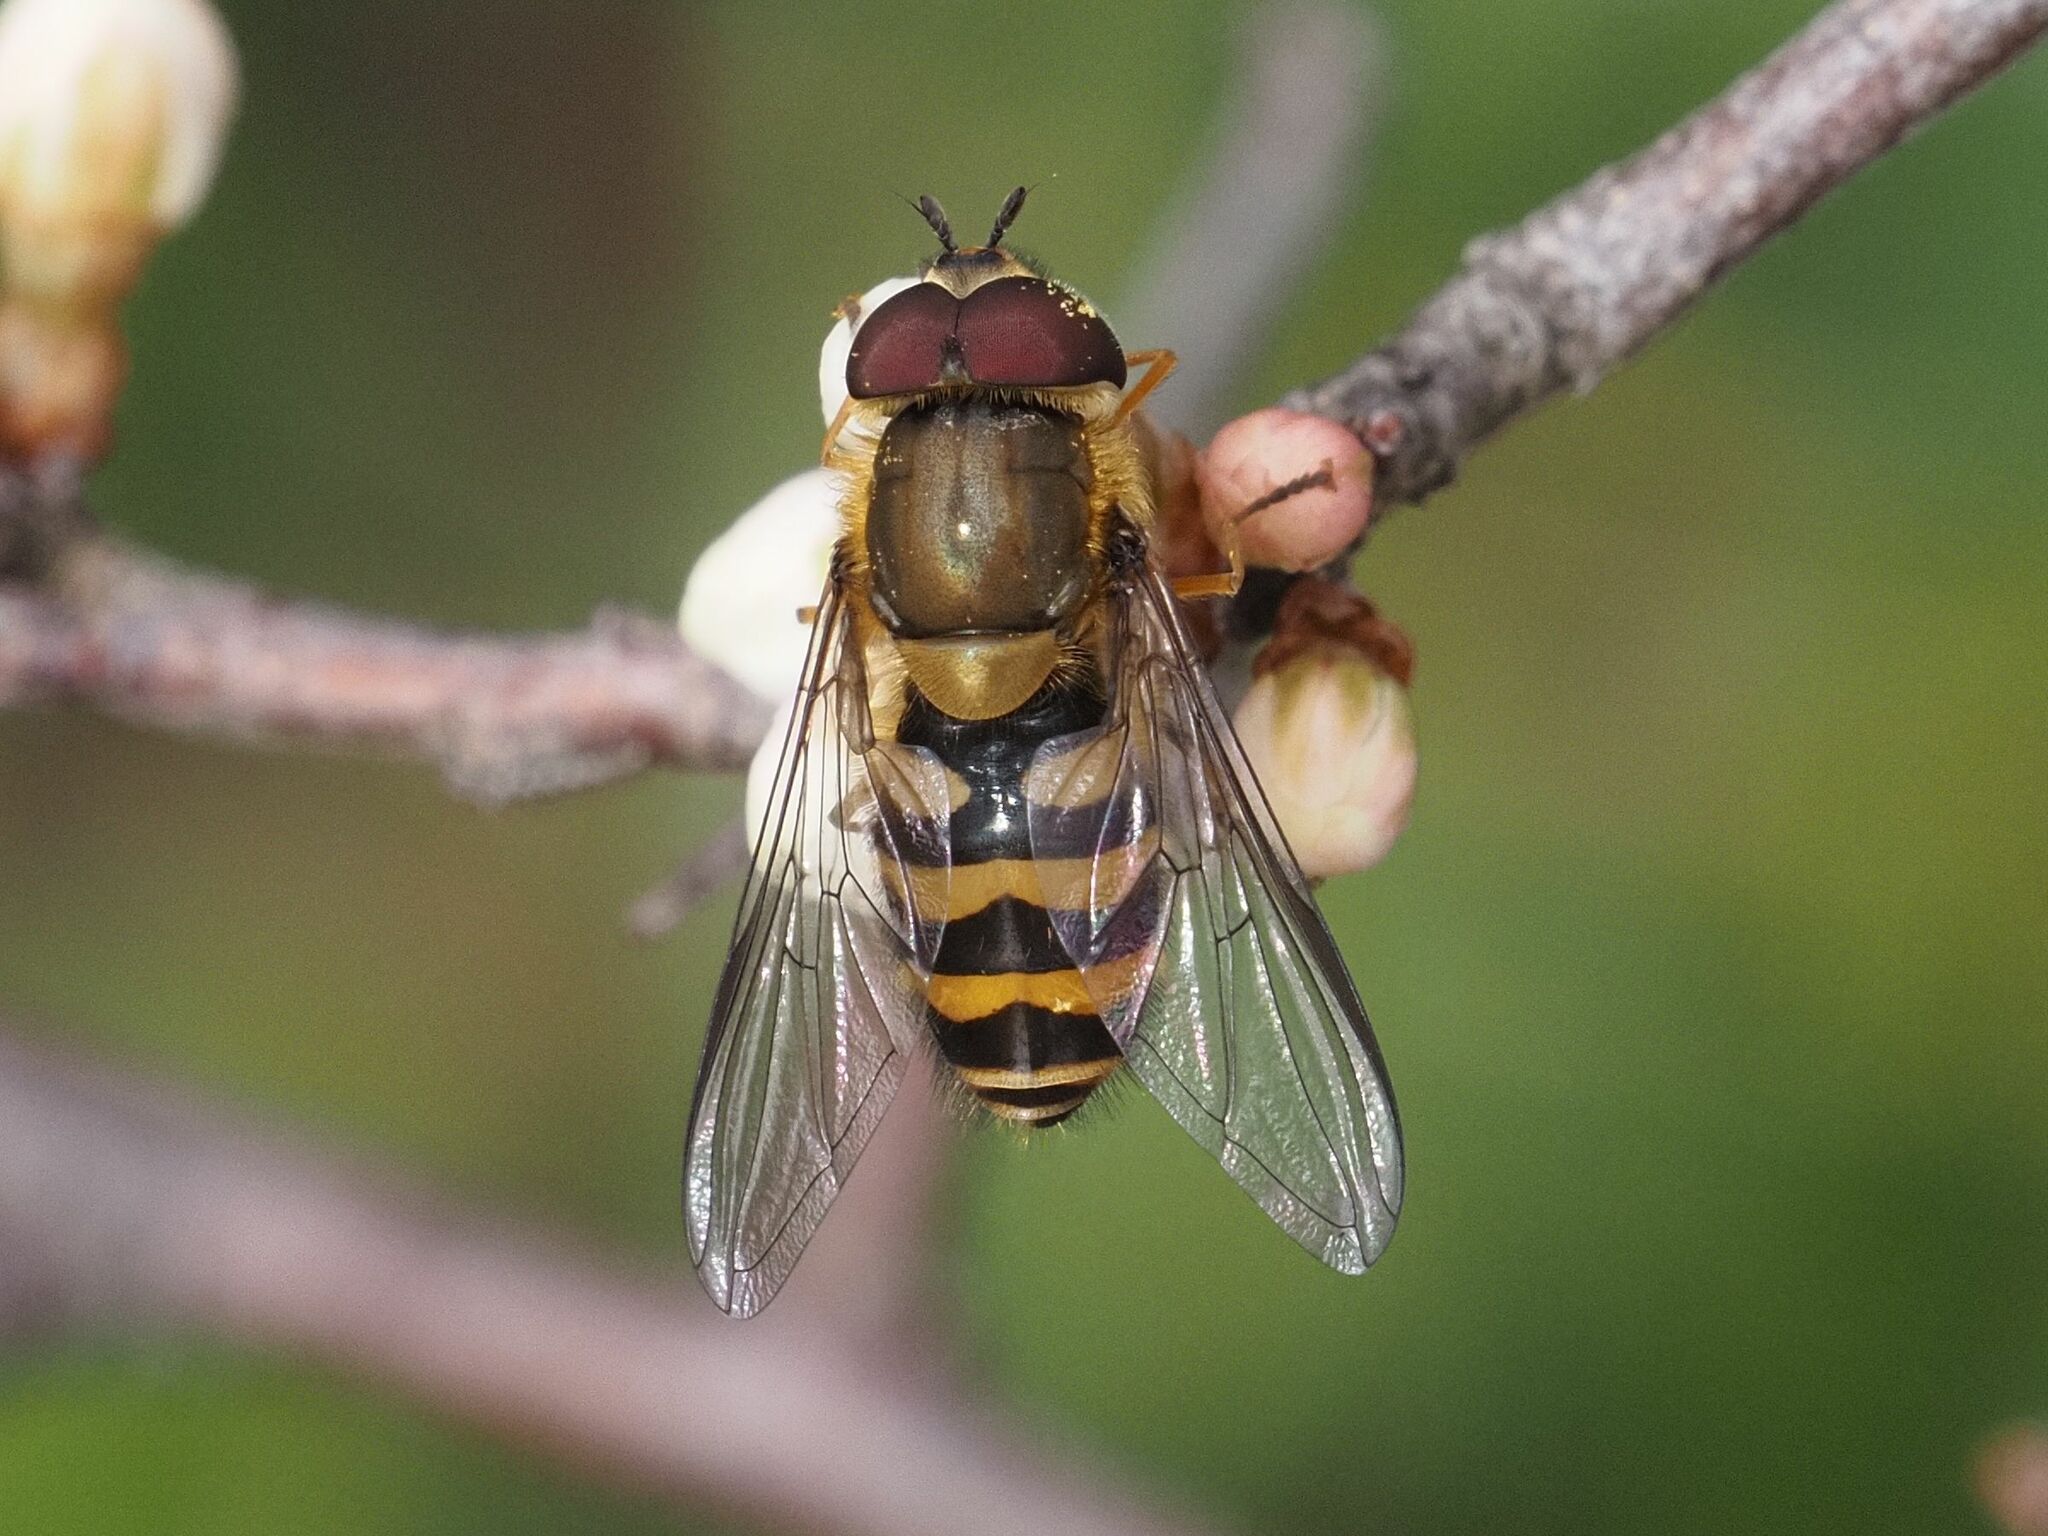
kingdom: Animalia
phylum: Arthropoda
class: Insecta
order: Diptera
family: Syrphidae
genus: Syrphus
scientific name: Syrphus torvus
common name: Hairy-eyed flower fly
